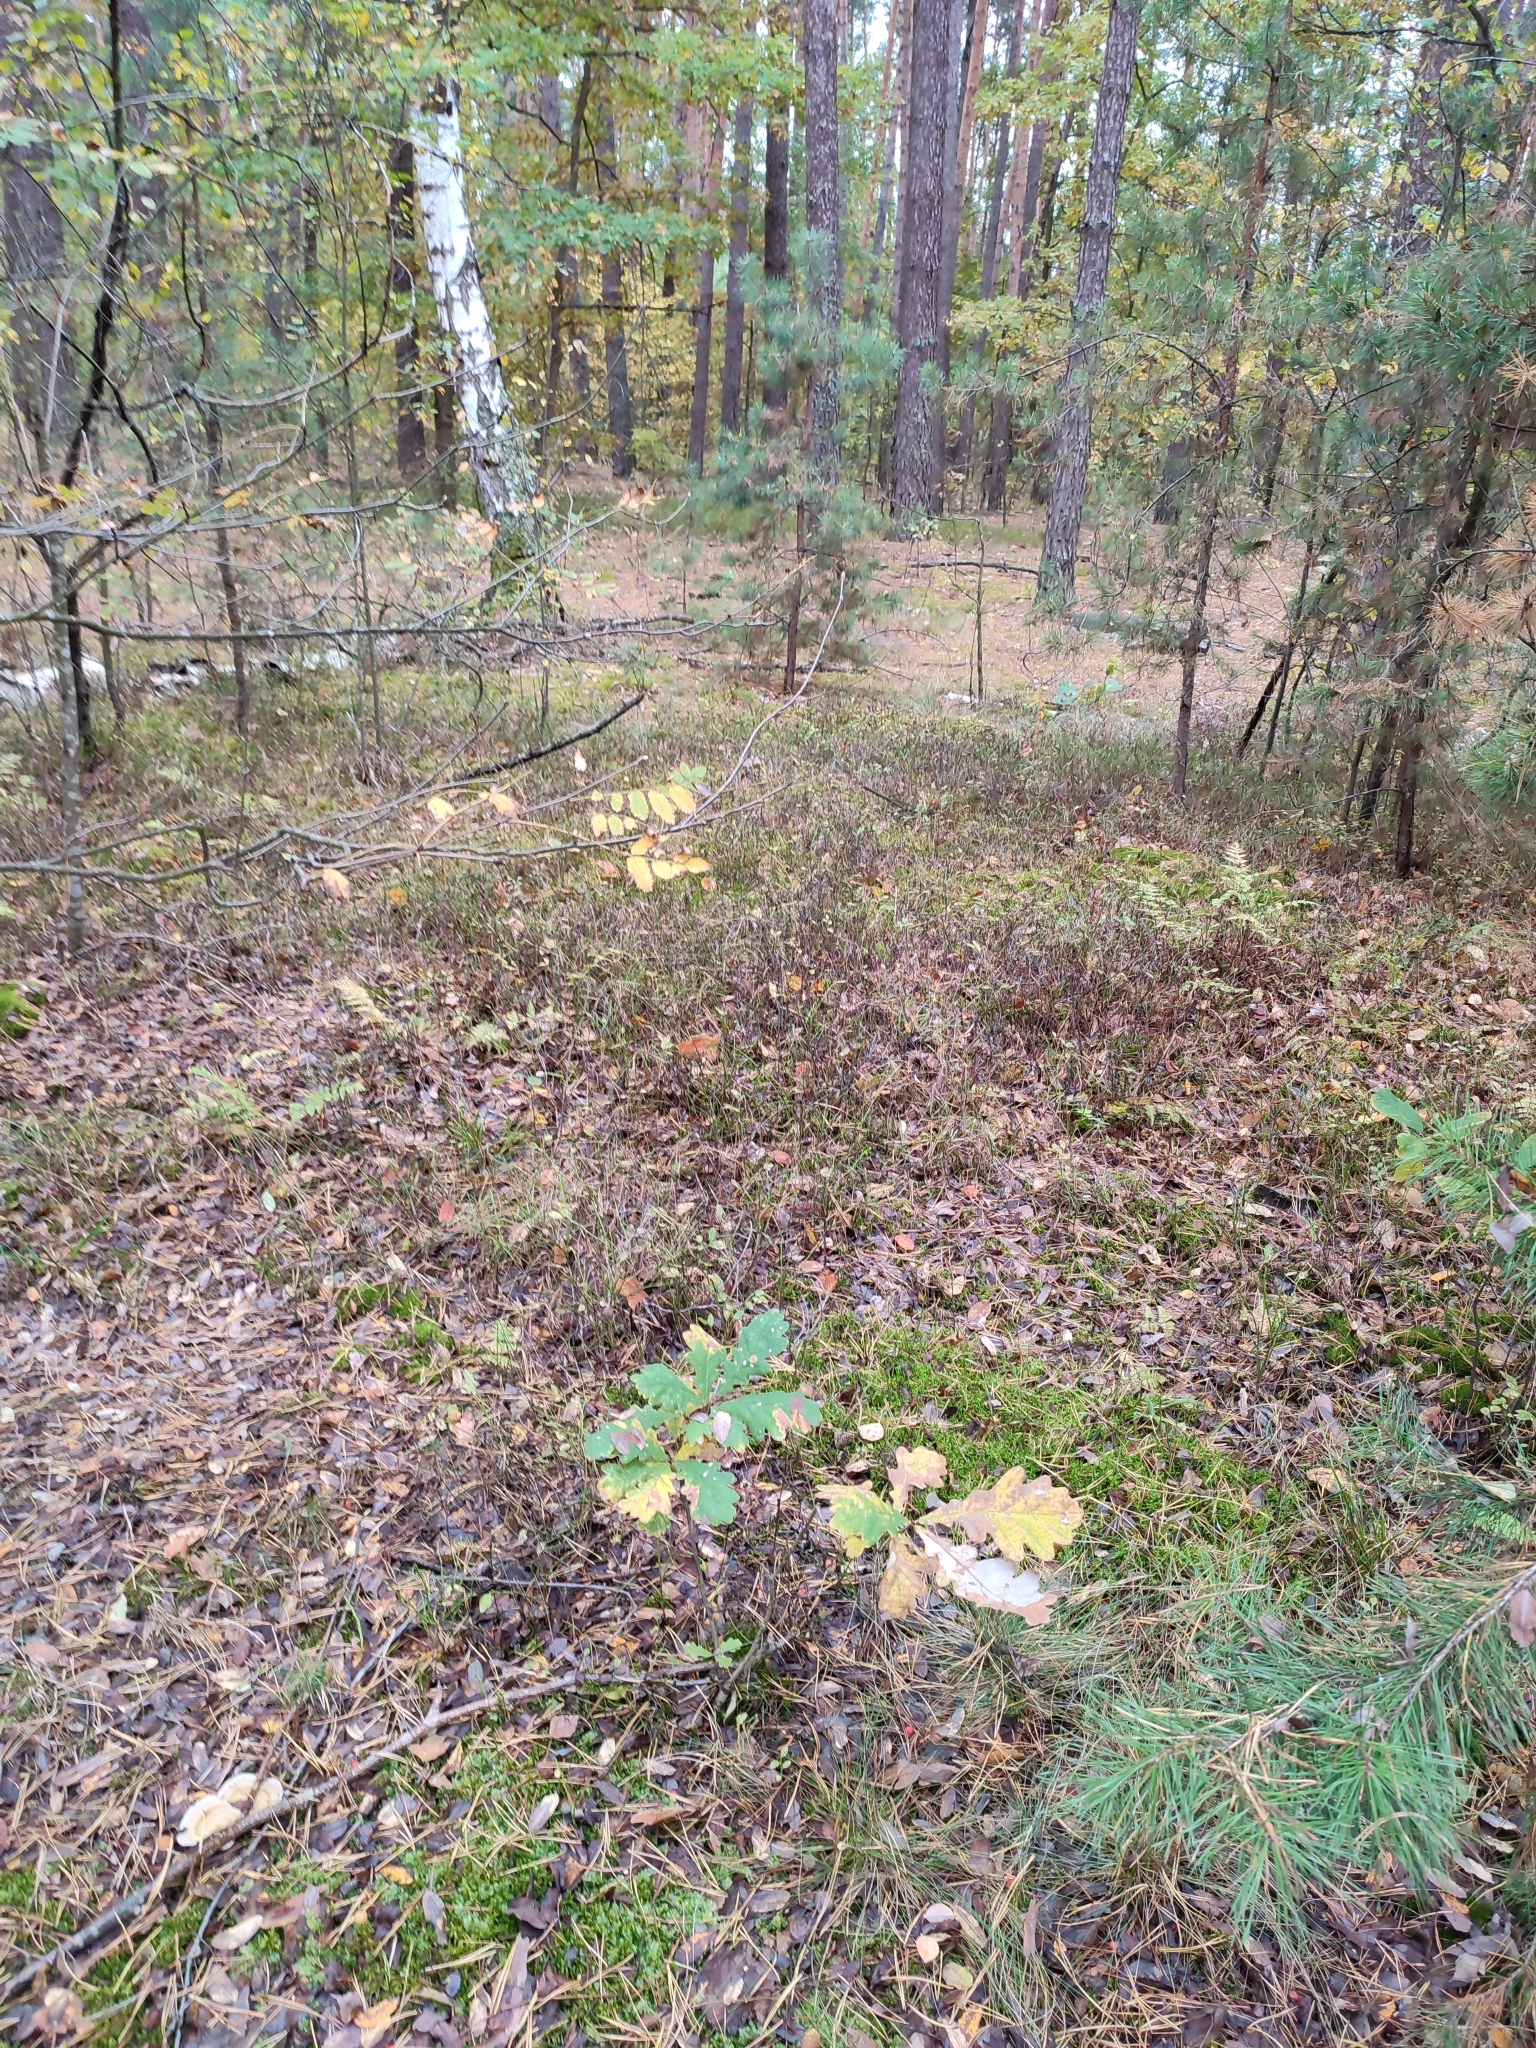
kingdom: Plantae
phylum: Tracheophyta
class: Magnoliopsida
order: Fagales
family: Fagaceae
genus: Quercus
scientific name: Quercus robur
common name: Pedunculate oak
